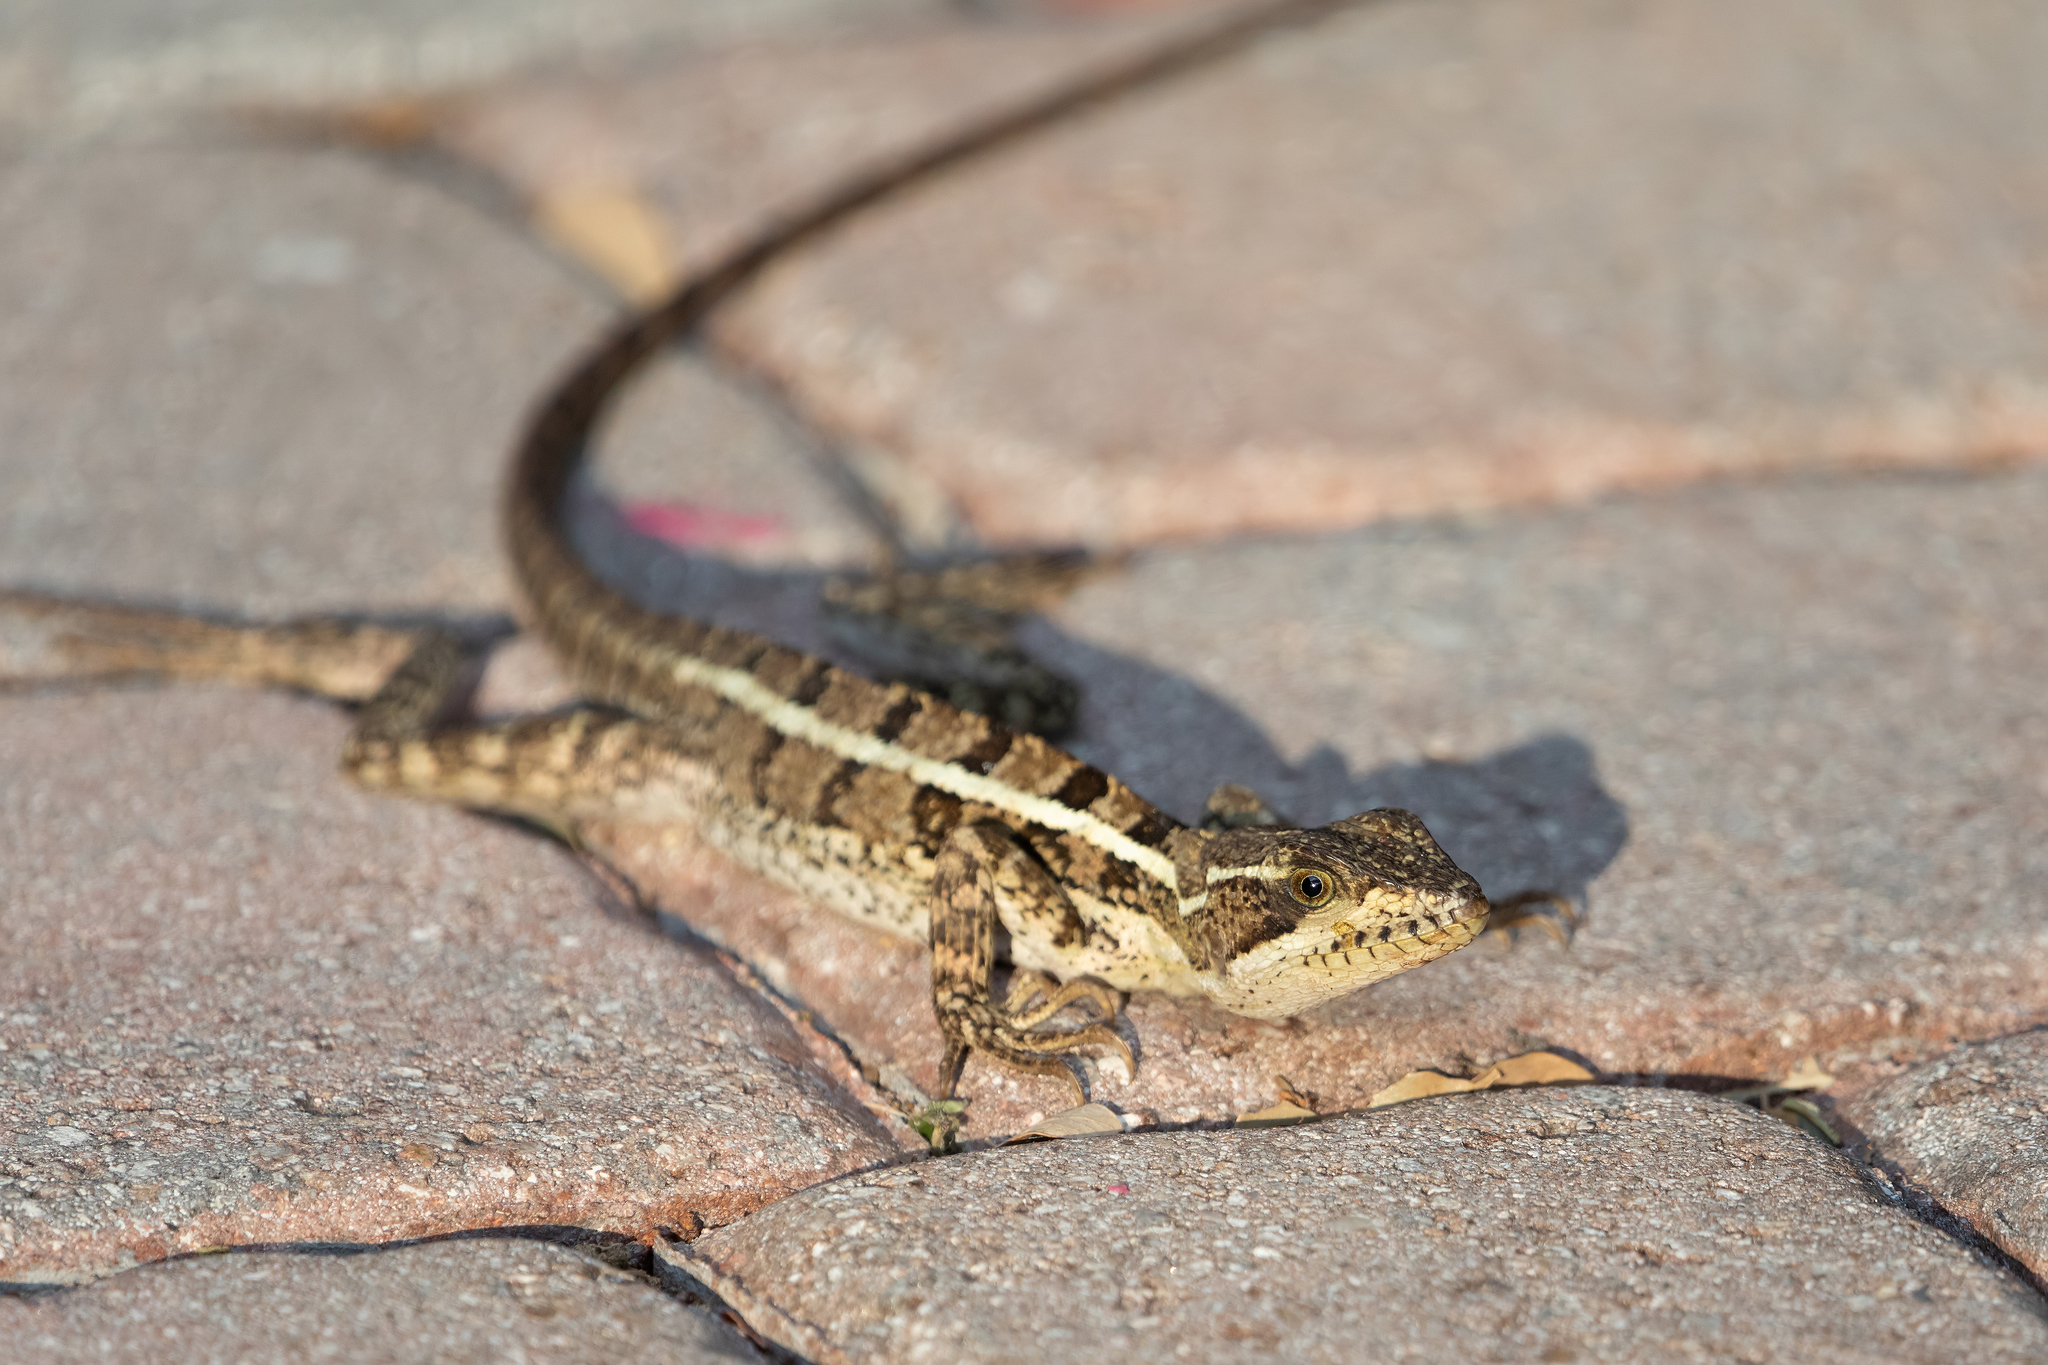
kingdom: Animalia
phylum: Chordata
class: Squamata
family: Corytophanidae
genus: Basiliscus
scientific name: Basiliscus vittatus
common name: Brown basilisk
